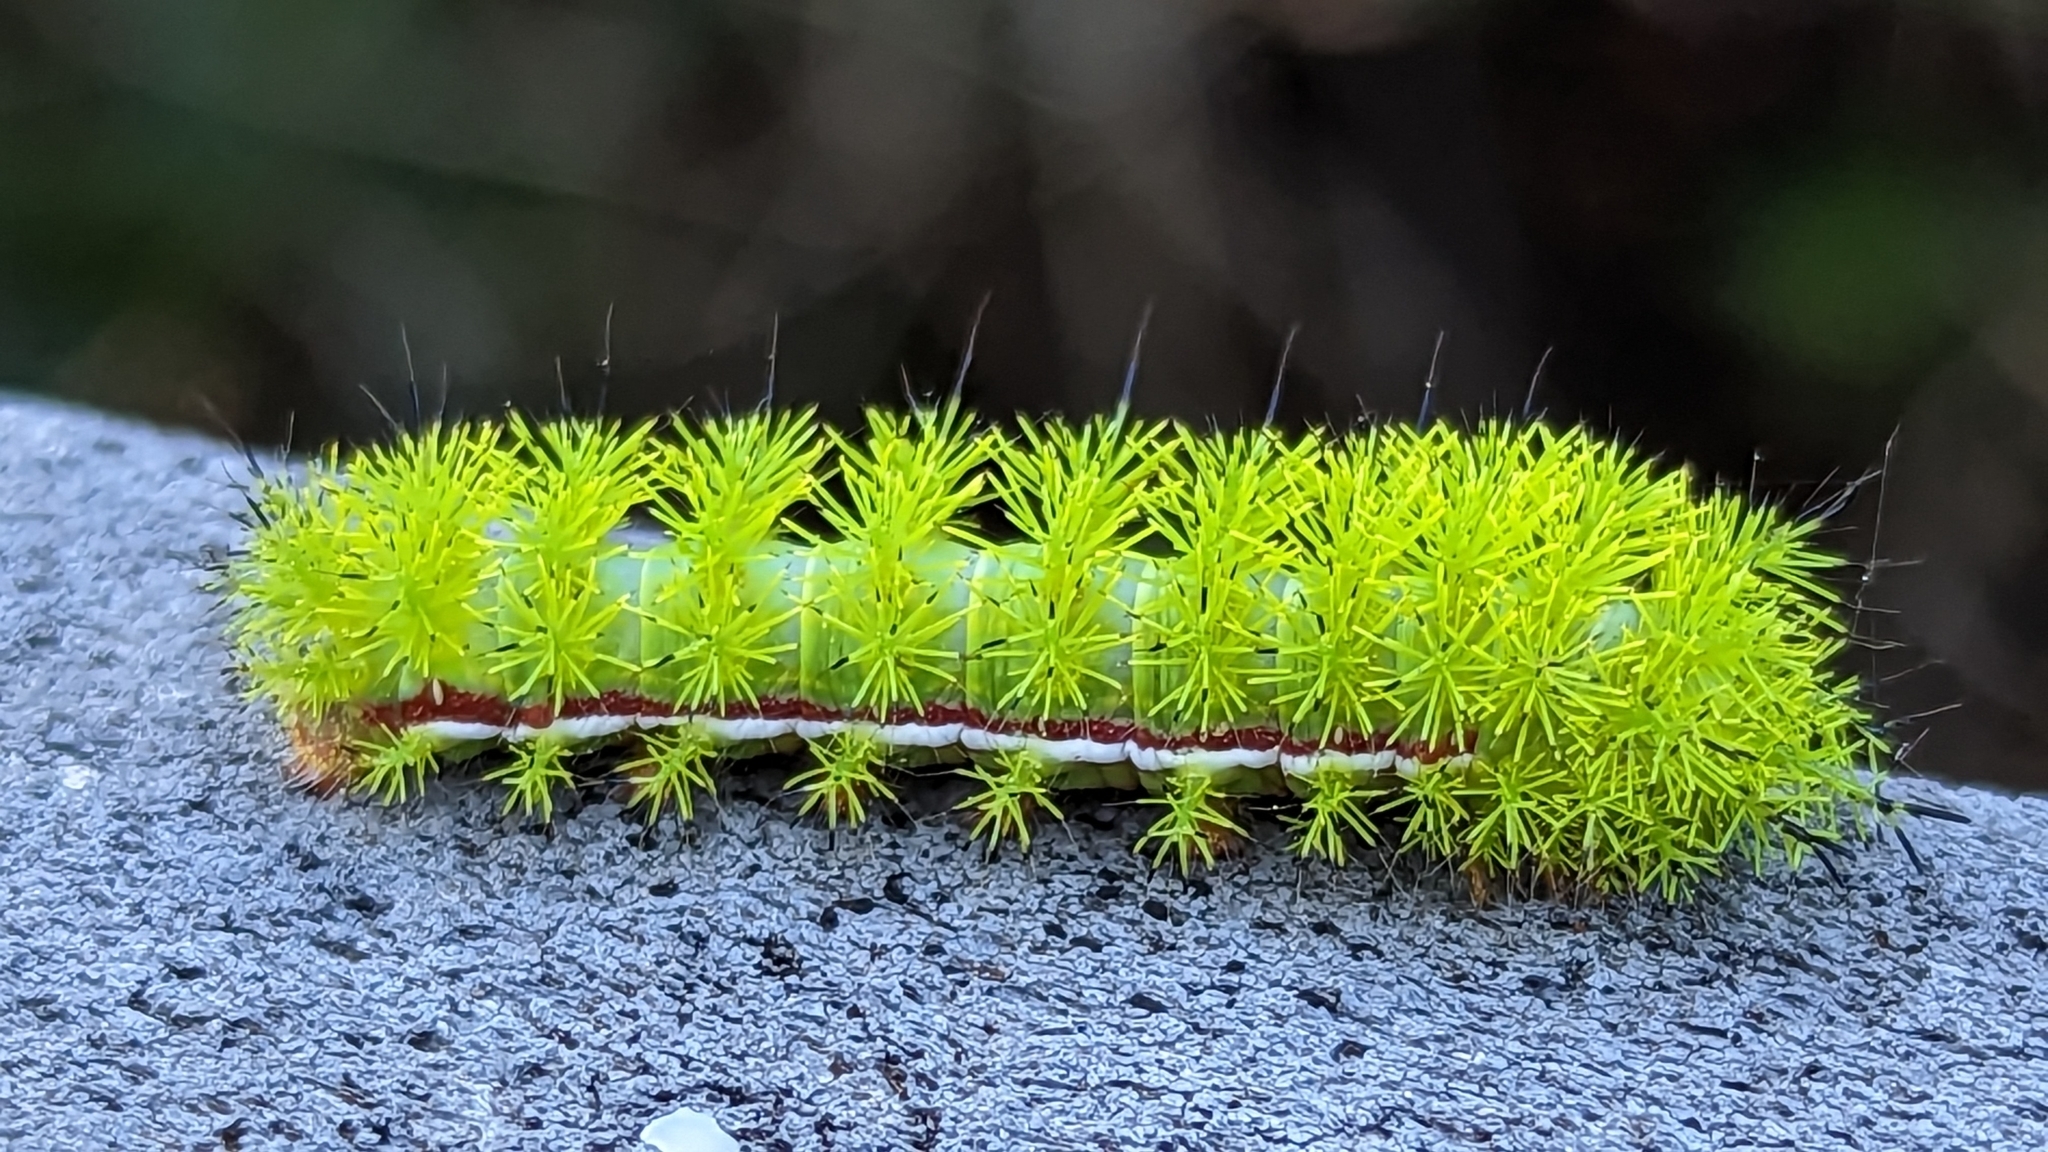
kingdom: Animalia
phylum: Arthropoda
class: Insecta
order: Lepidoptera
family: Saturniidae
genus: Automeris
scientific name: Automeris io
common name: Io moth
